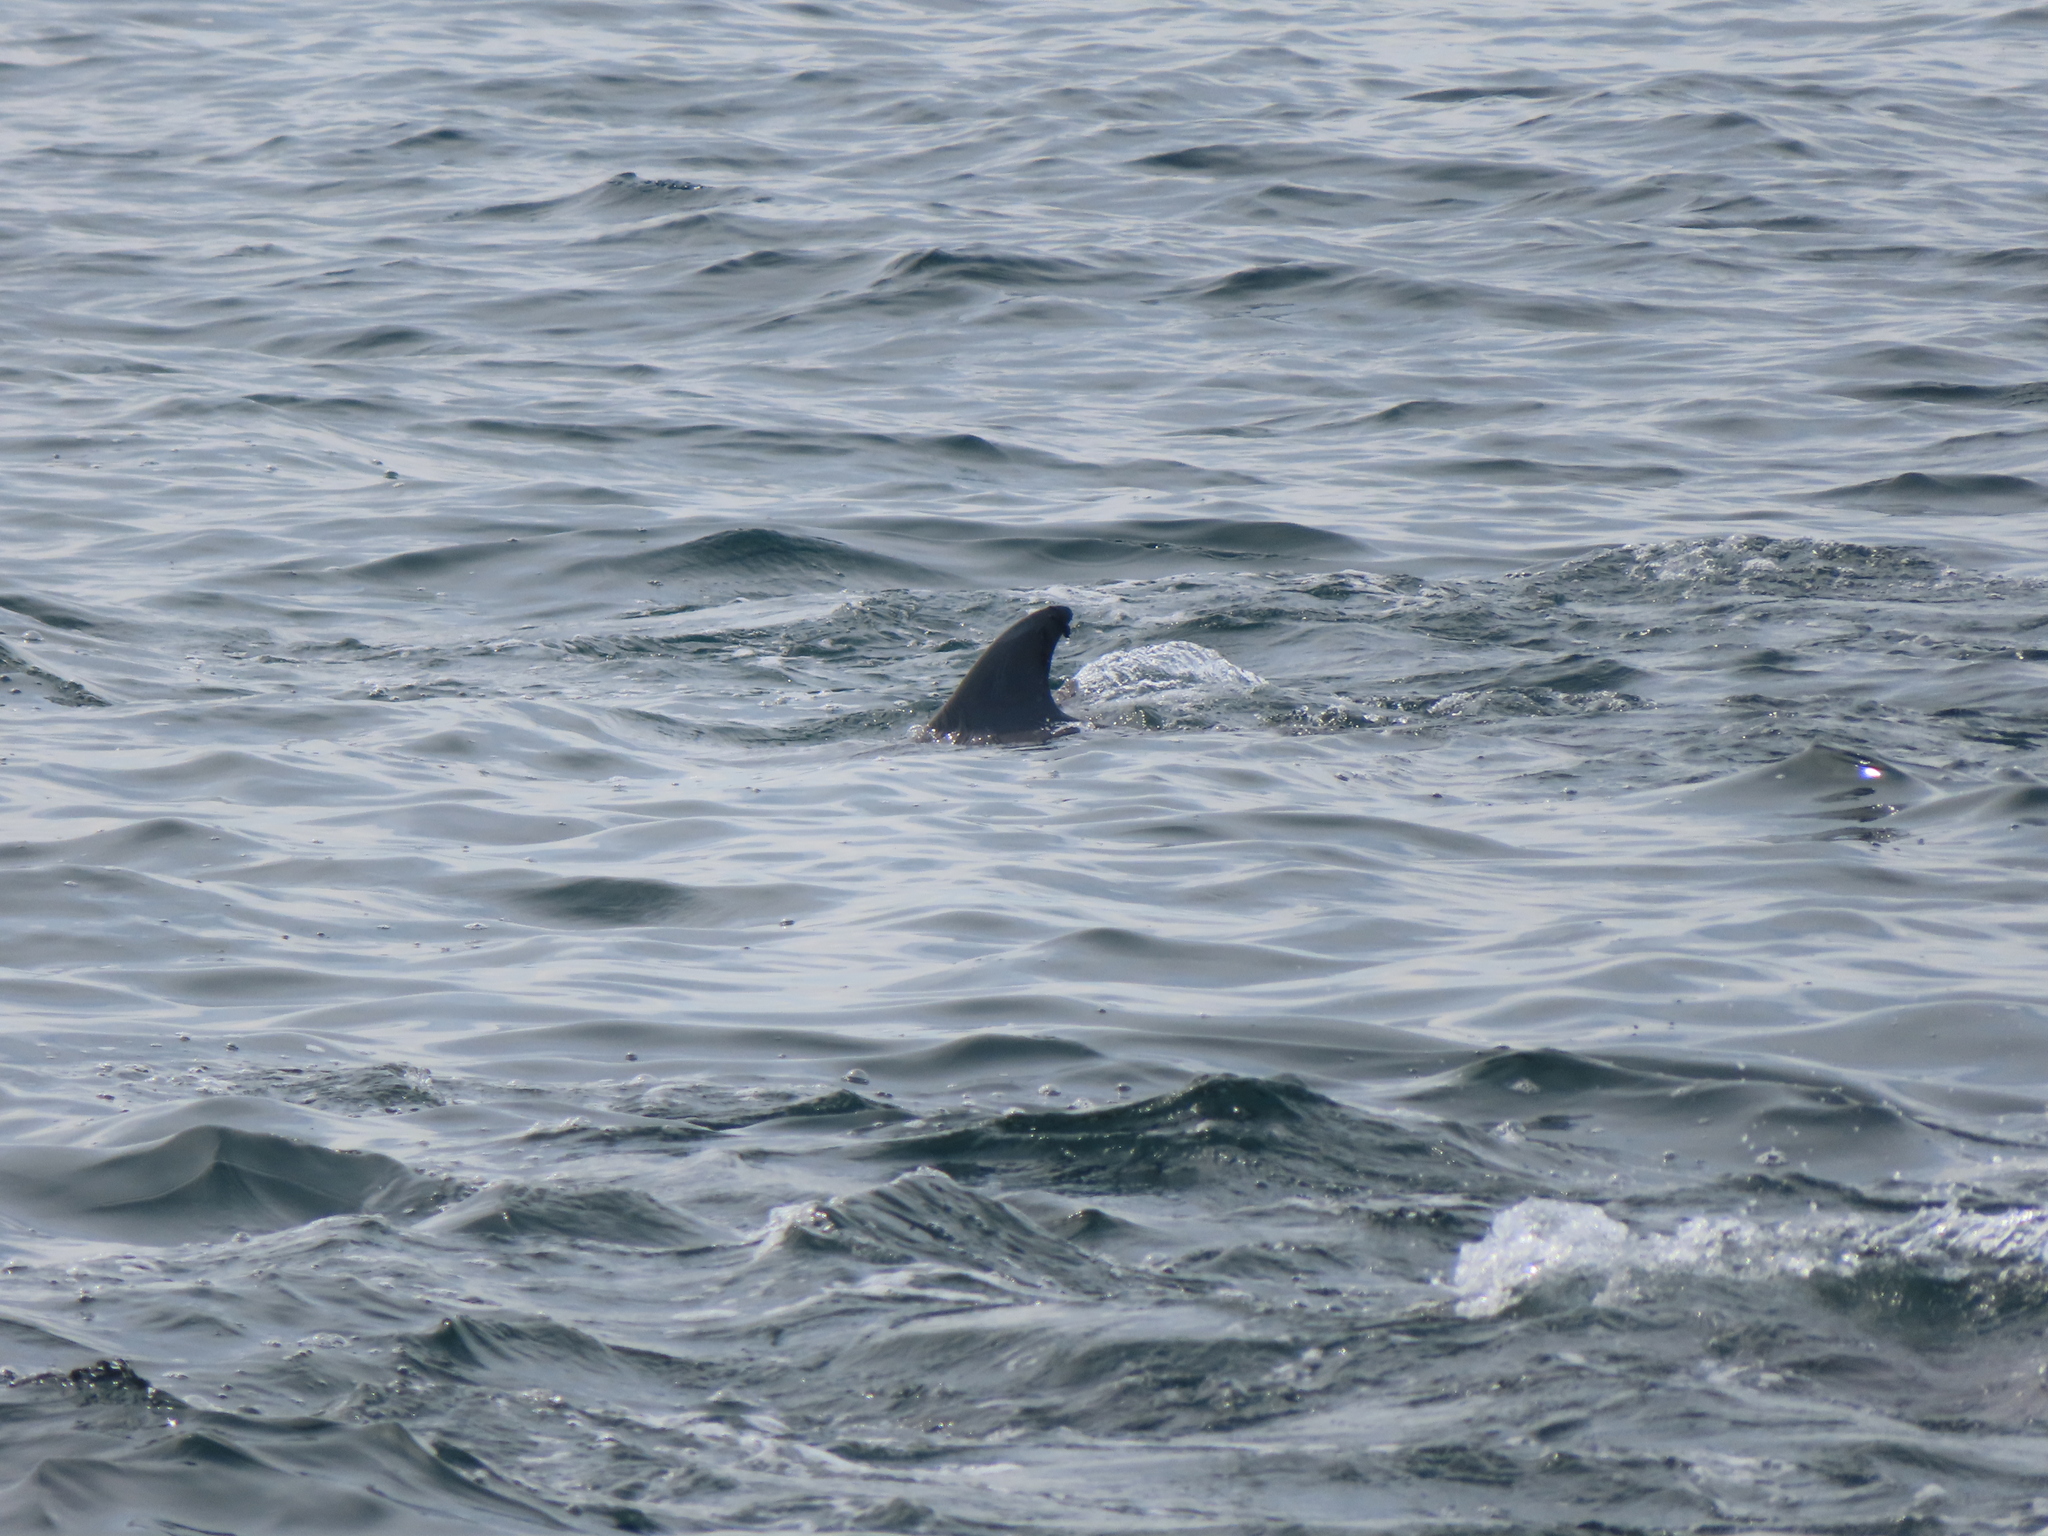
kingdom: Animalia
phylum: Chordata
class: Mammalia
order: Cetacea
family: Delphinidae
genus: Tursiops
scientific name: Tursiops truncatus
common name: Bottlenose dolphin
